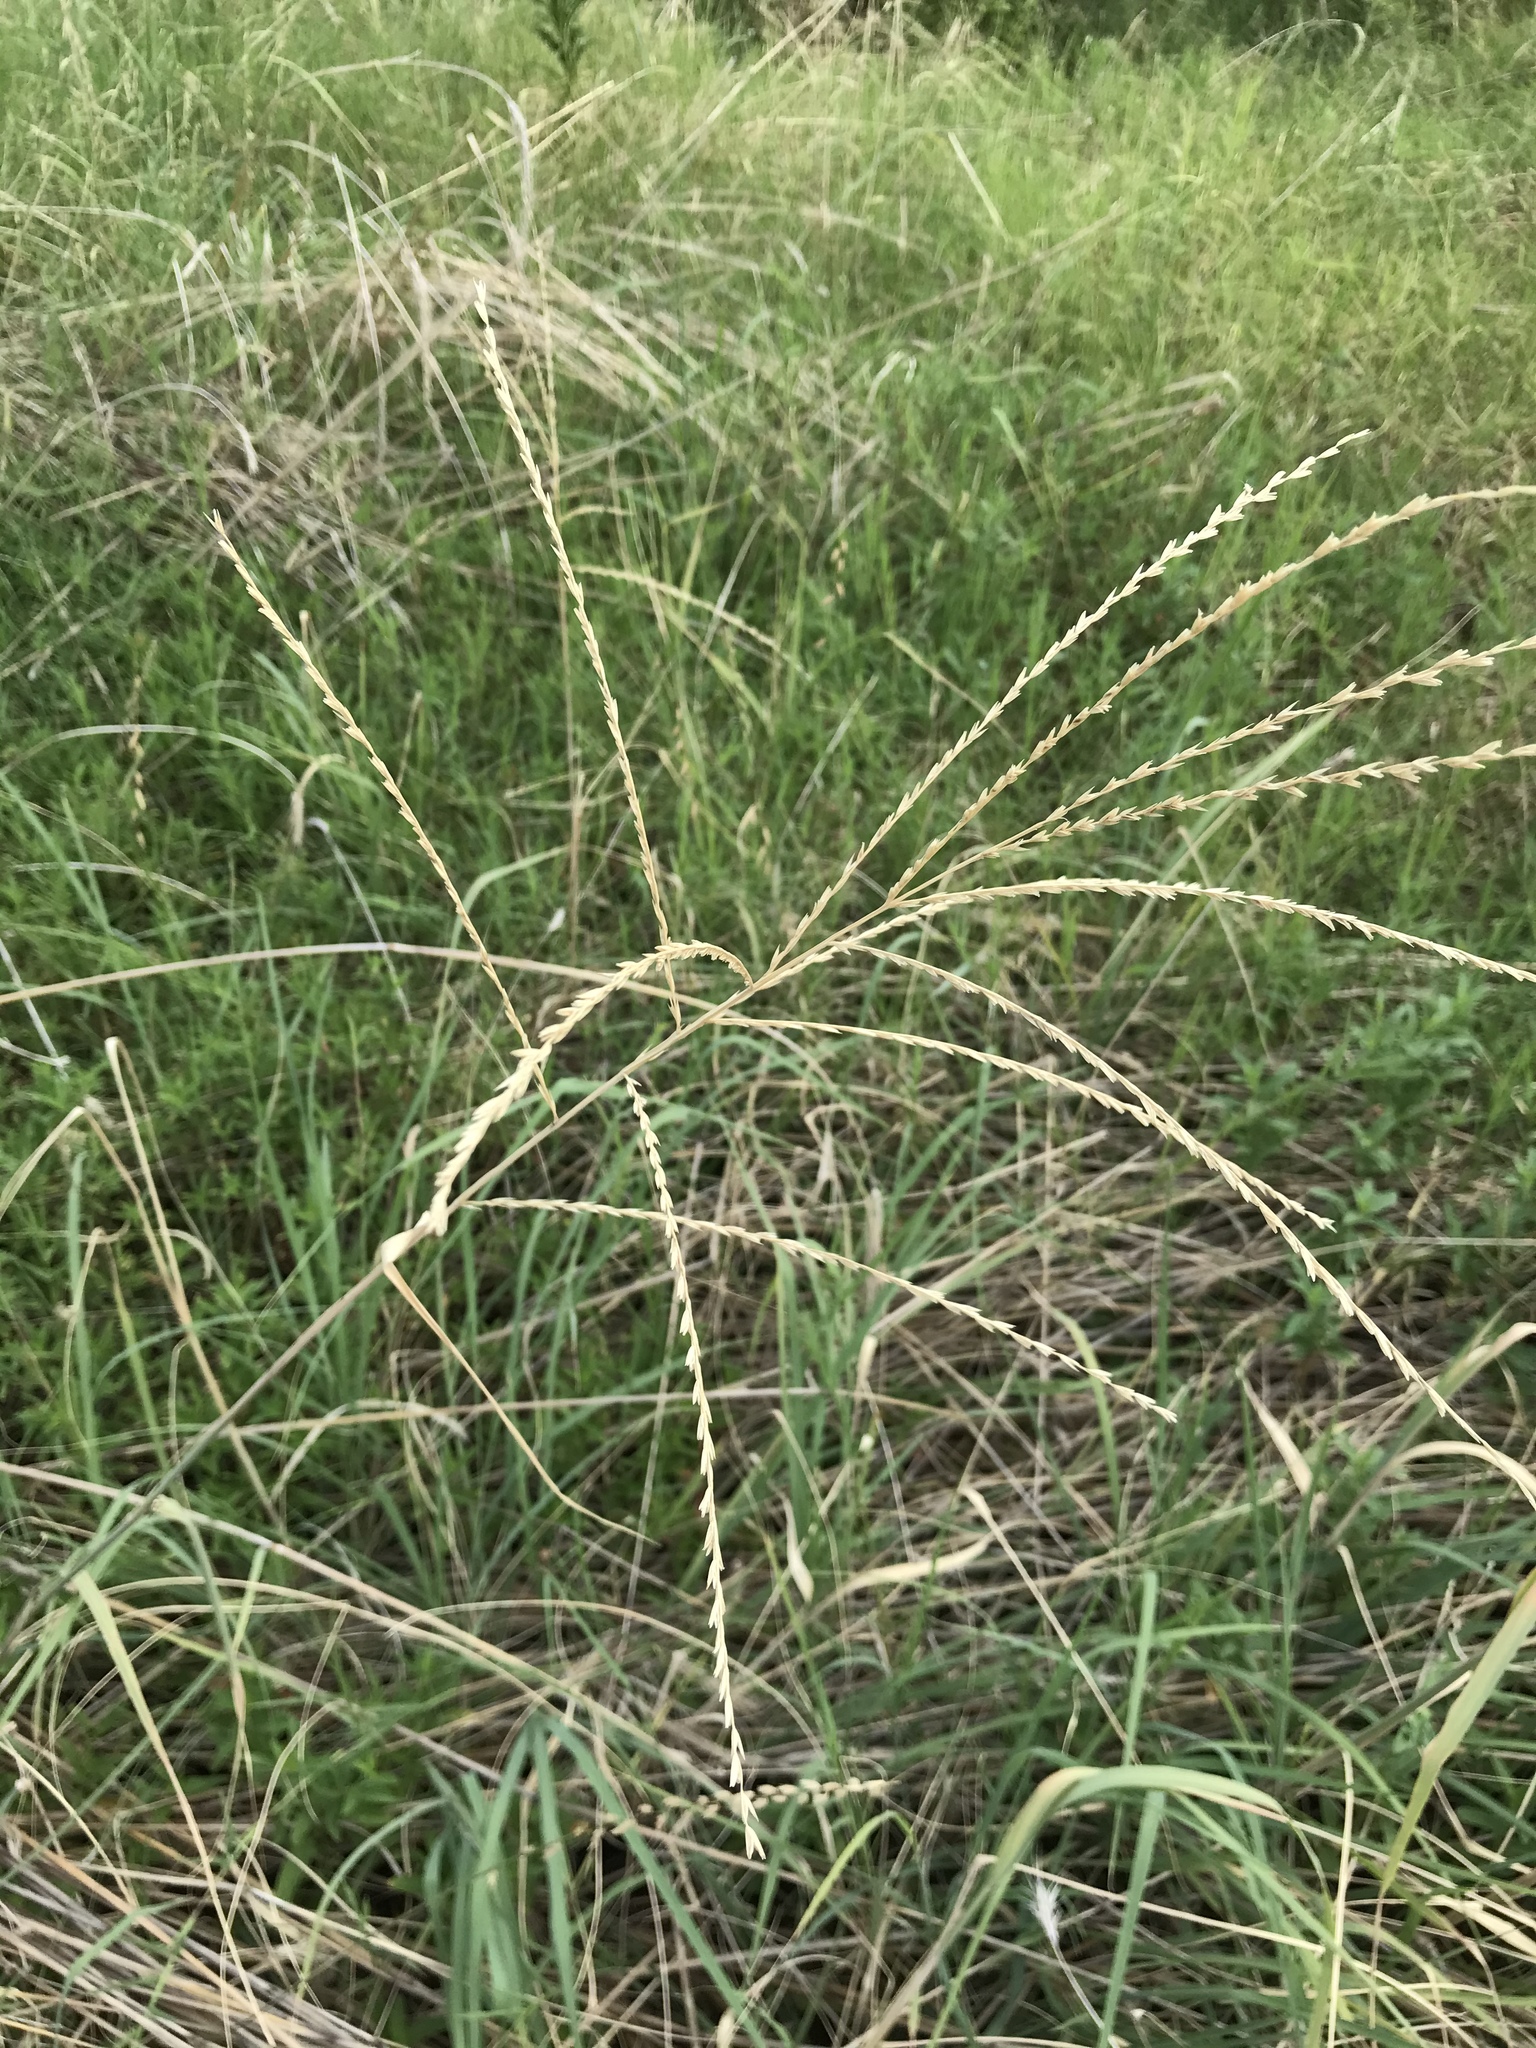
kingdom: Plantae
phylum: Tracheophyta
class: Liliopsida
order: Poales
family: Poaceae
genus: Disakisperma
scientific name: Disakisperma dubium
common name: Green sprangletop
